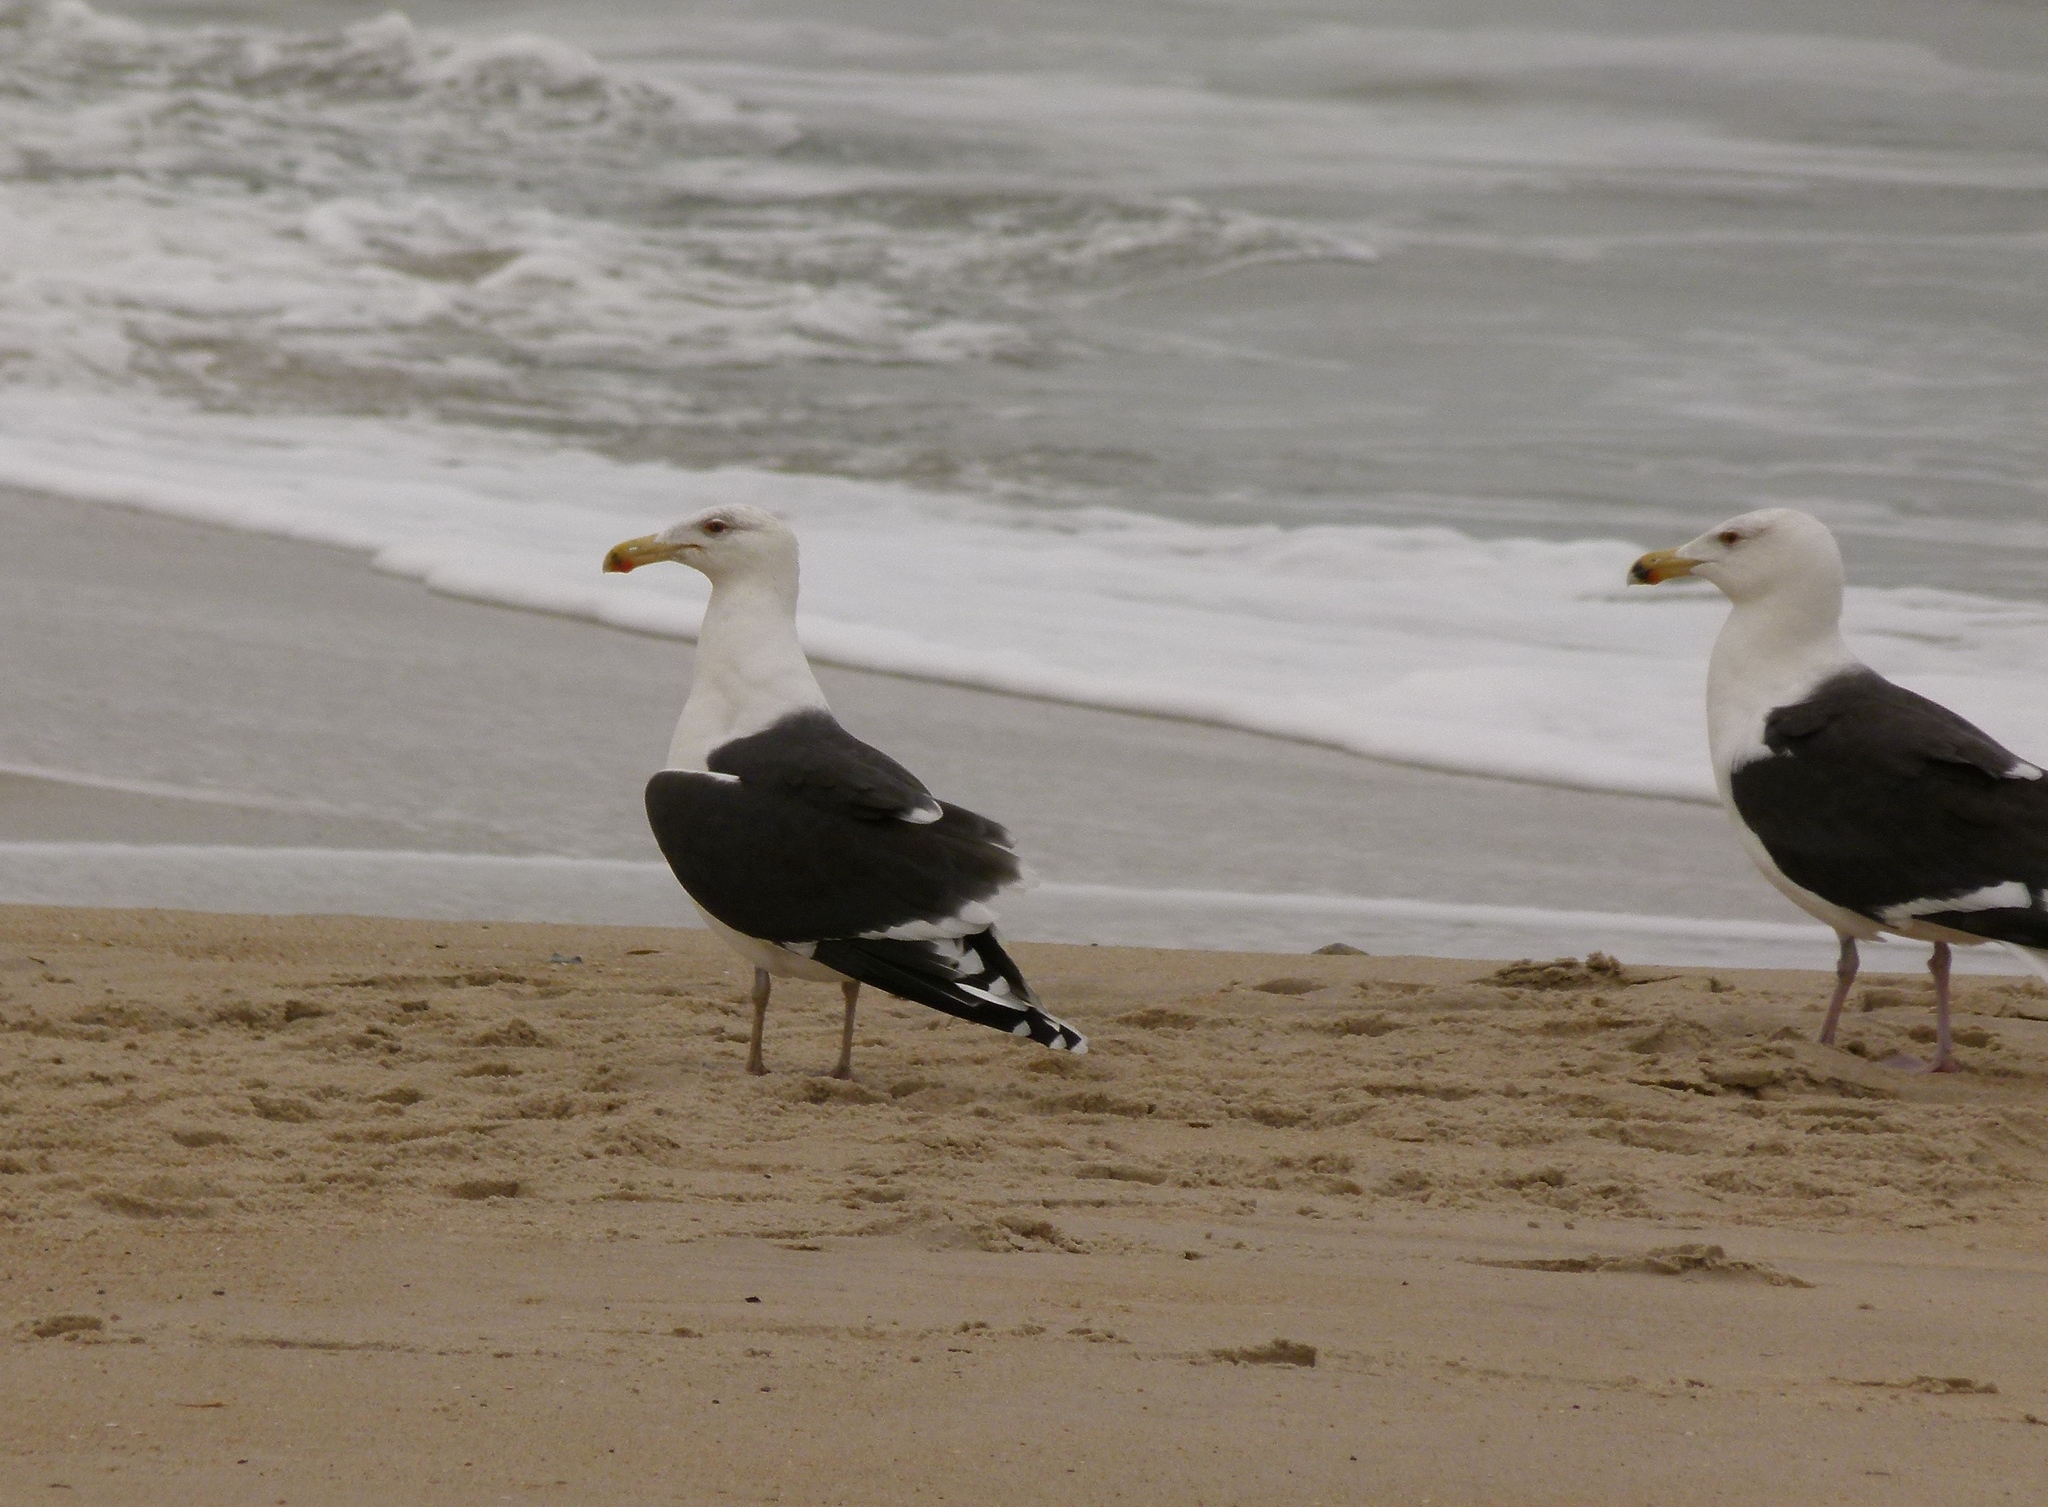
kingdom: Animalia
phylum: Chordata
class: Aves
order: Charadriiformes
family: Laridae
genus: Larus
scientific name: Larus marinus
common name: Great black-backed gull
